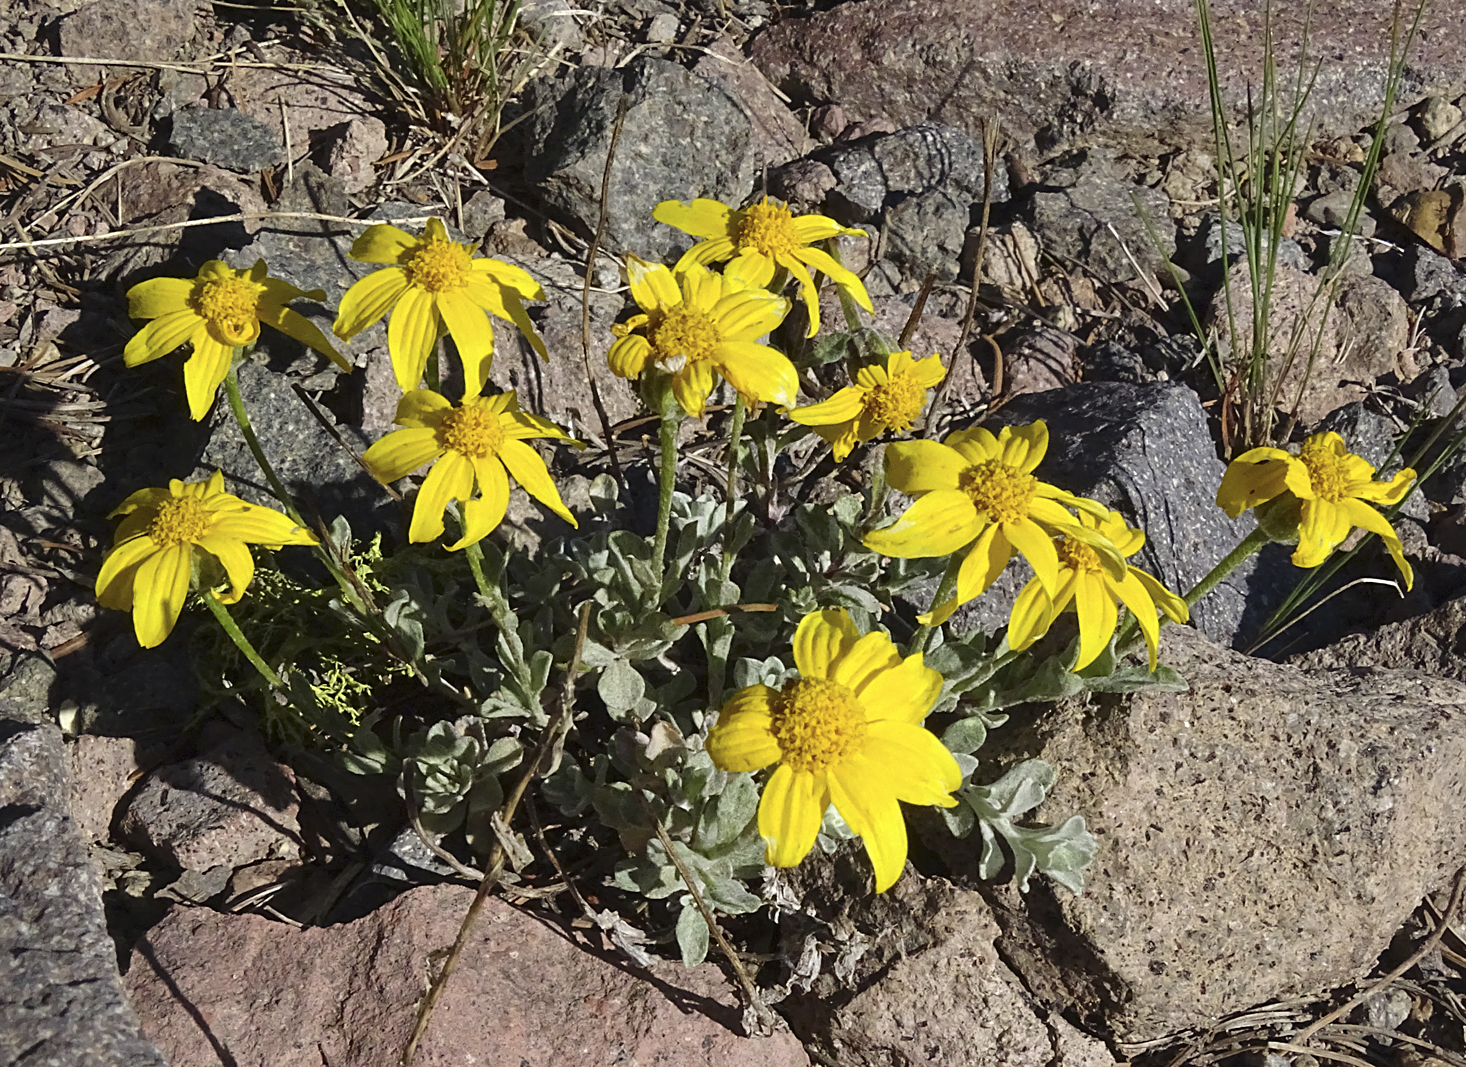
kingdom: Plantae
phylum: Tracheophyta
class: Magnoliopsida
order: Asterales
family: Asteraceae
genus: Eriophyllum
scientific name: Eriophyllum lanatum
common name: Common woolly-sunflower
